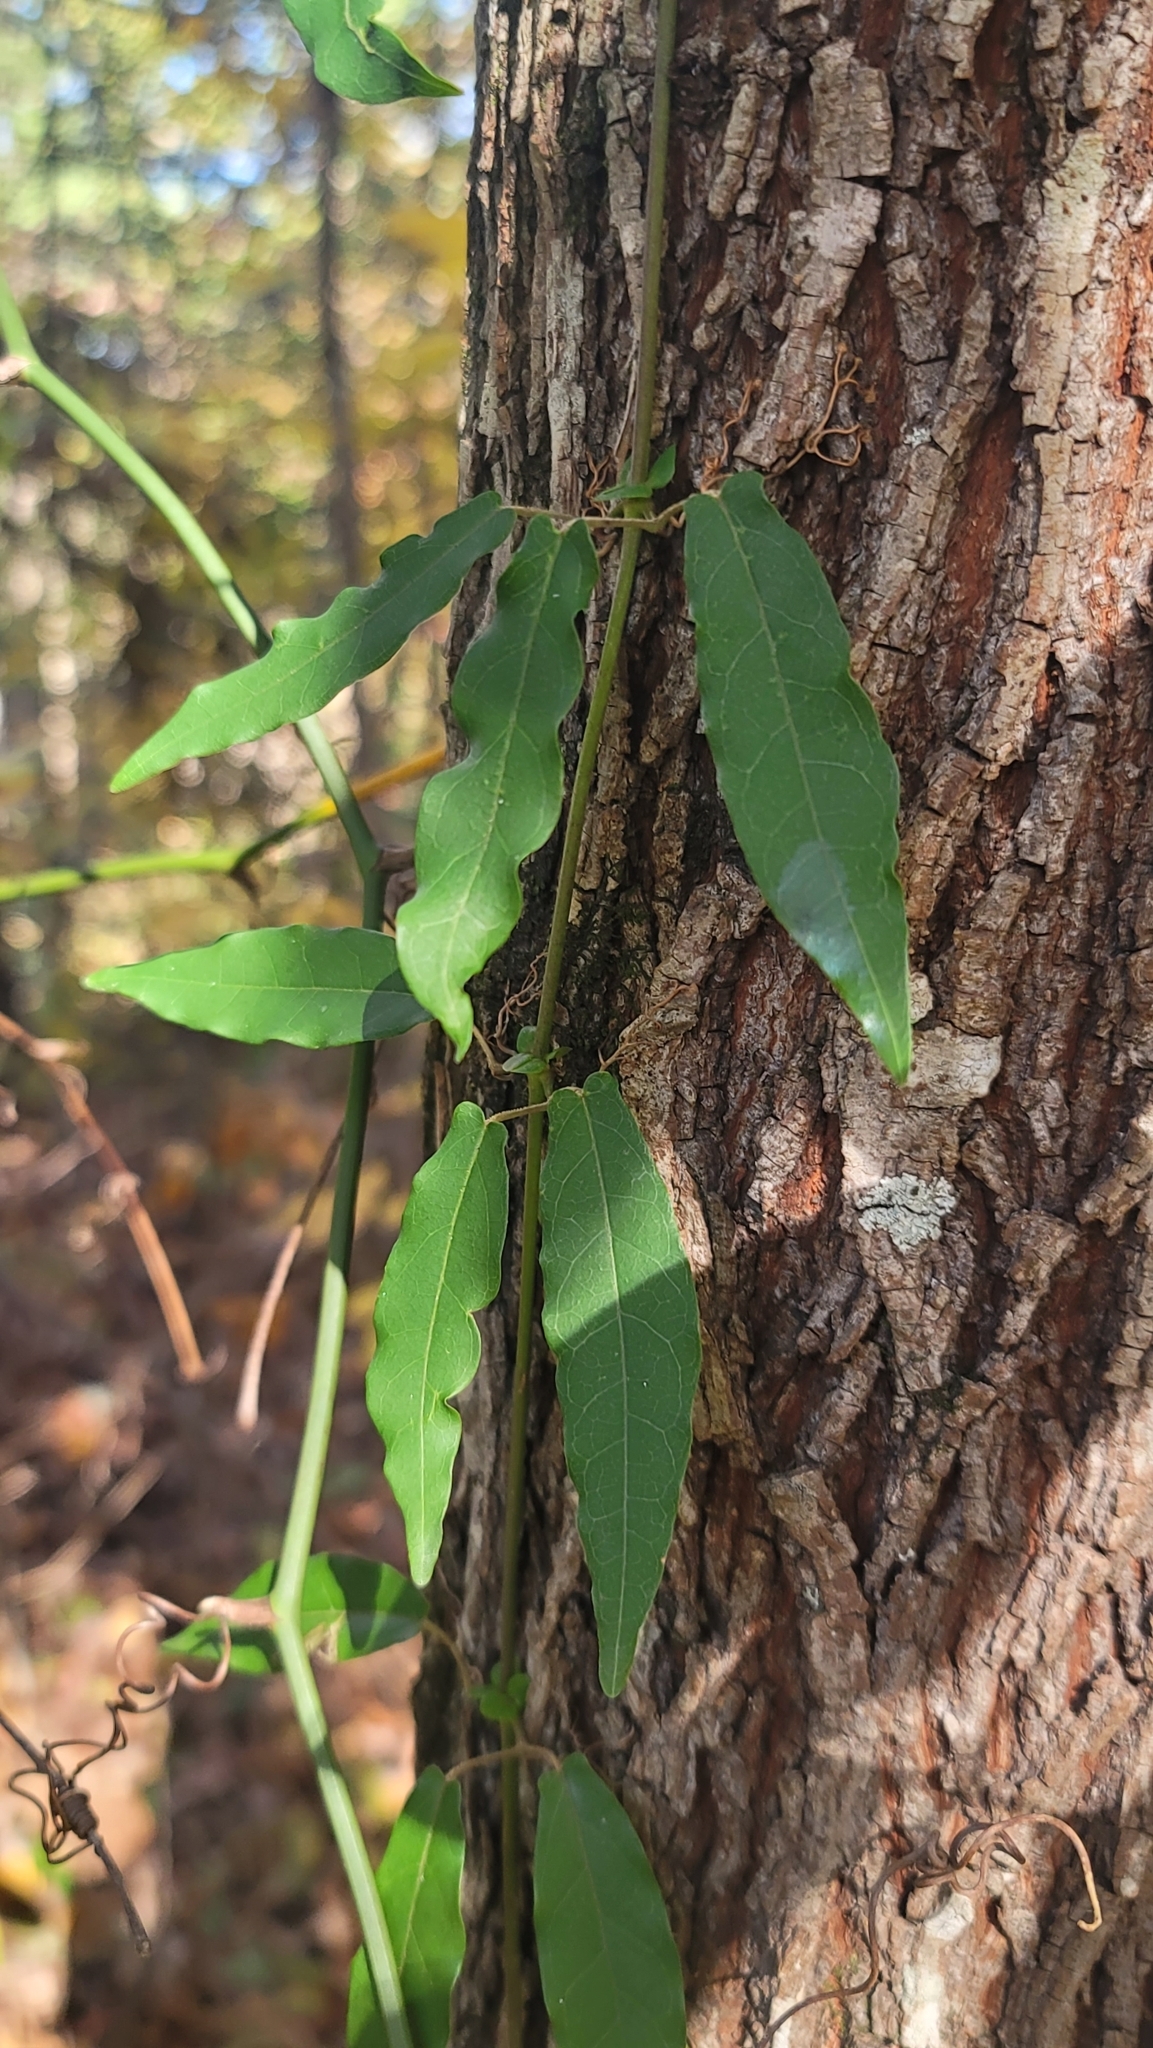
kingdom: Plantae
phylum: Tracheophyta
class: Magnoliopsida
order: Lamiales
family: Bignoniaceae
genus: Bignonia
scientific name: Bignonia capreolata
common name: Crossvine
